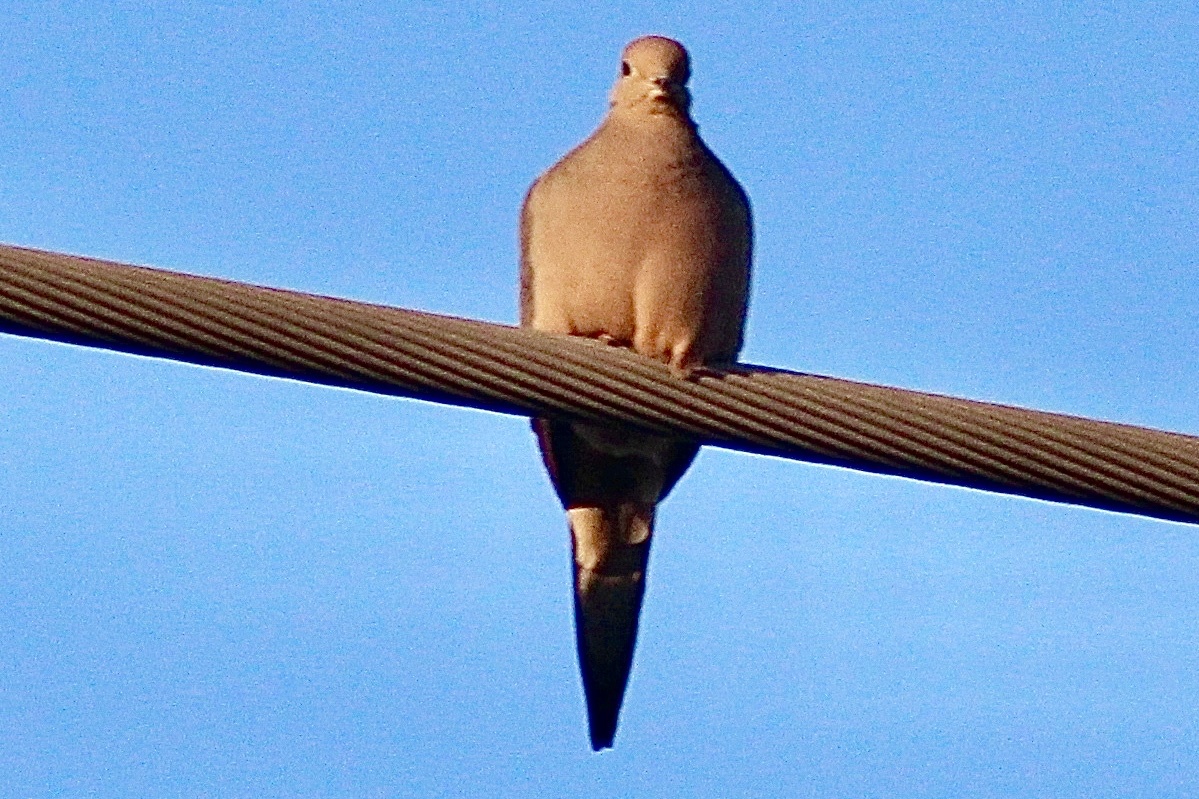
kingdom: Animalia
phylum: Chordata
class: Aves
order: Columbiformes
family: Columbidae
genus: Zenaida
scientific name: Zenaida macroura
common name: Mourning dove
